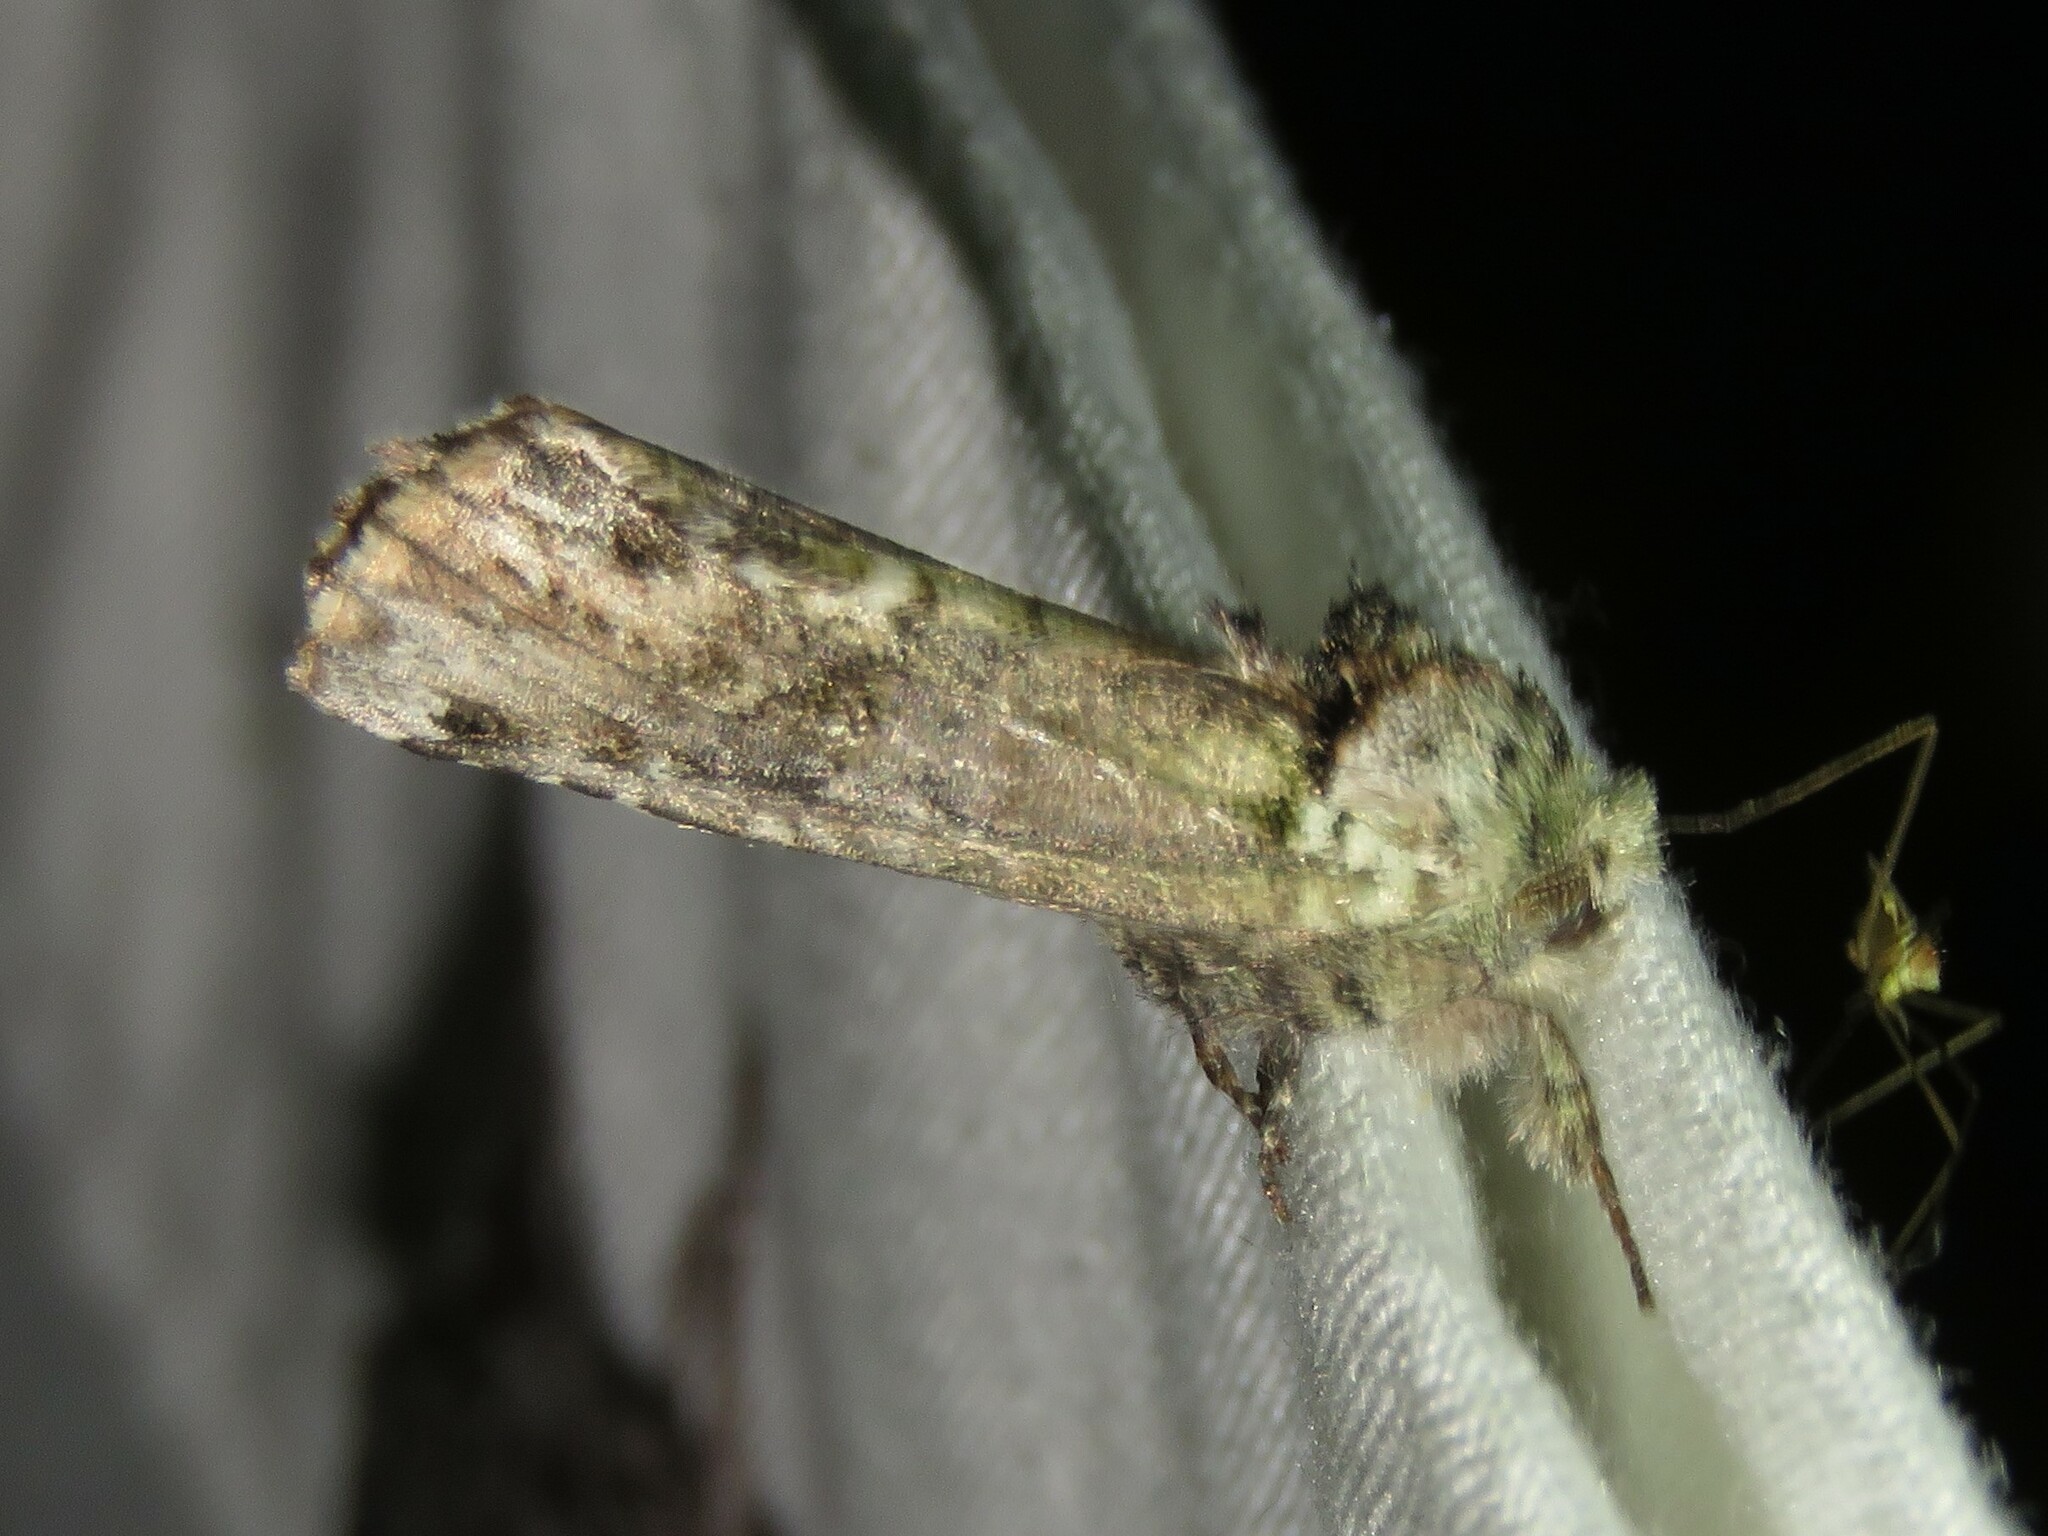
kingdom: Animalia
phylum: Arthropoda
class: Insecta
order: Lepidoptera
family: Notodontidae
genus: Schizura
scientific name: Schizura
